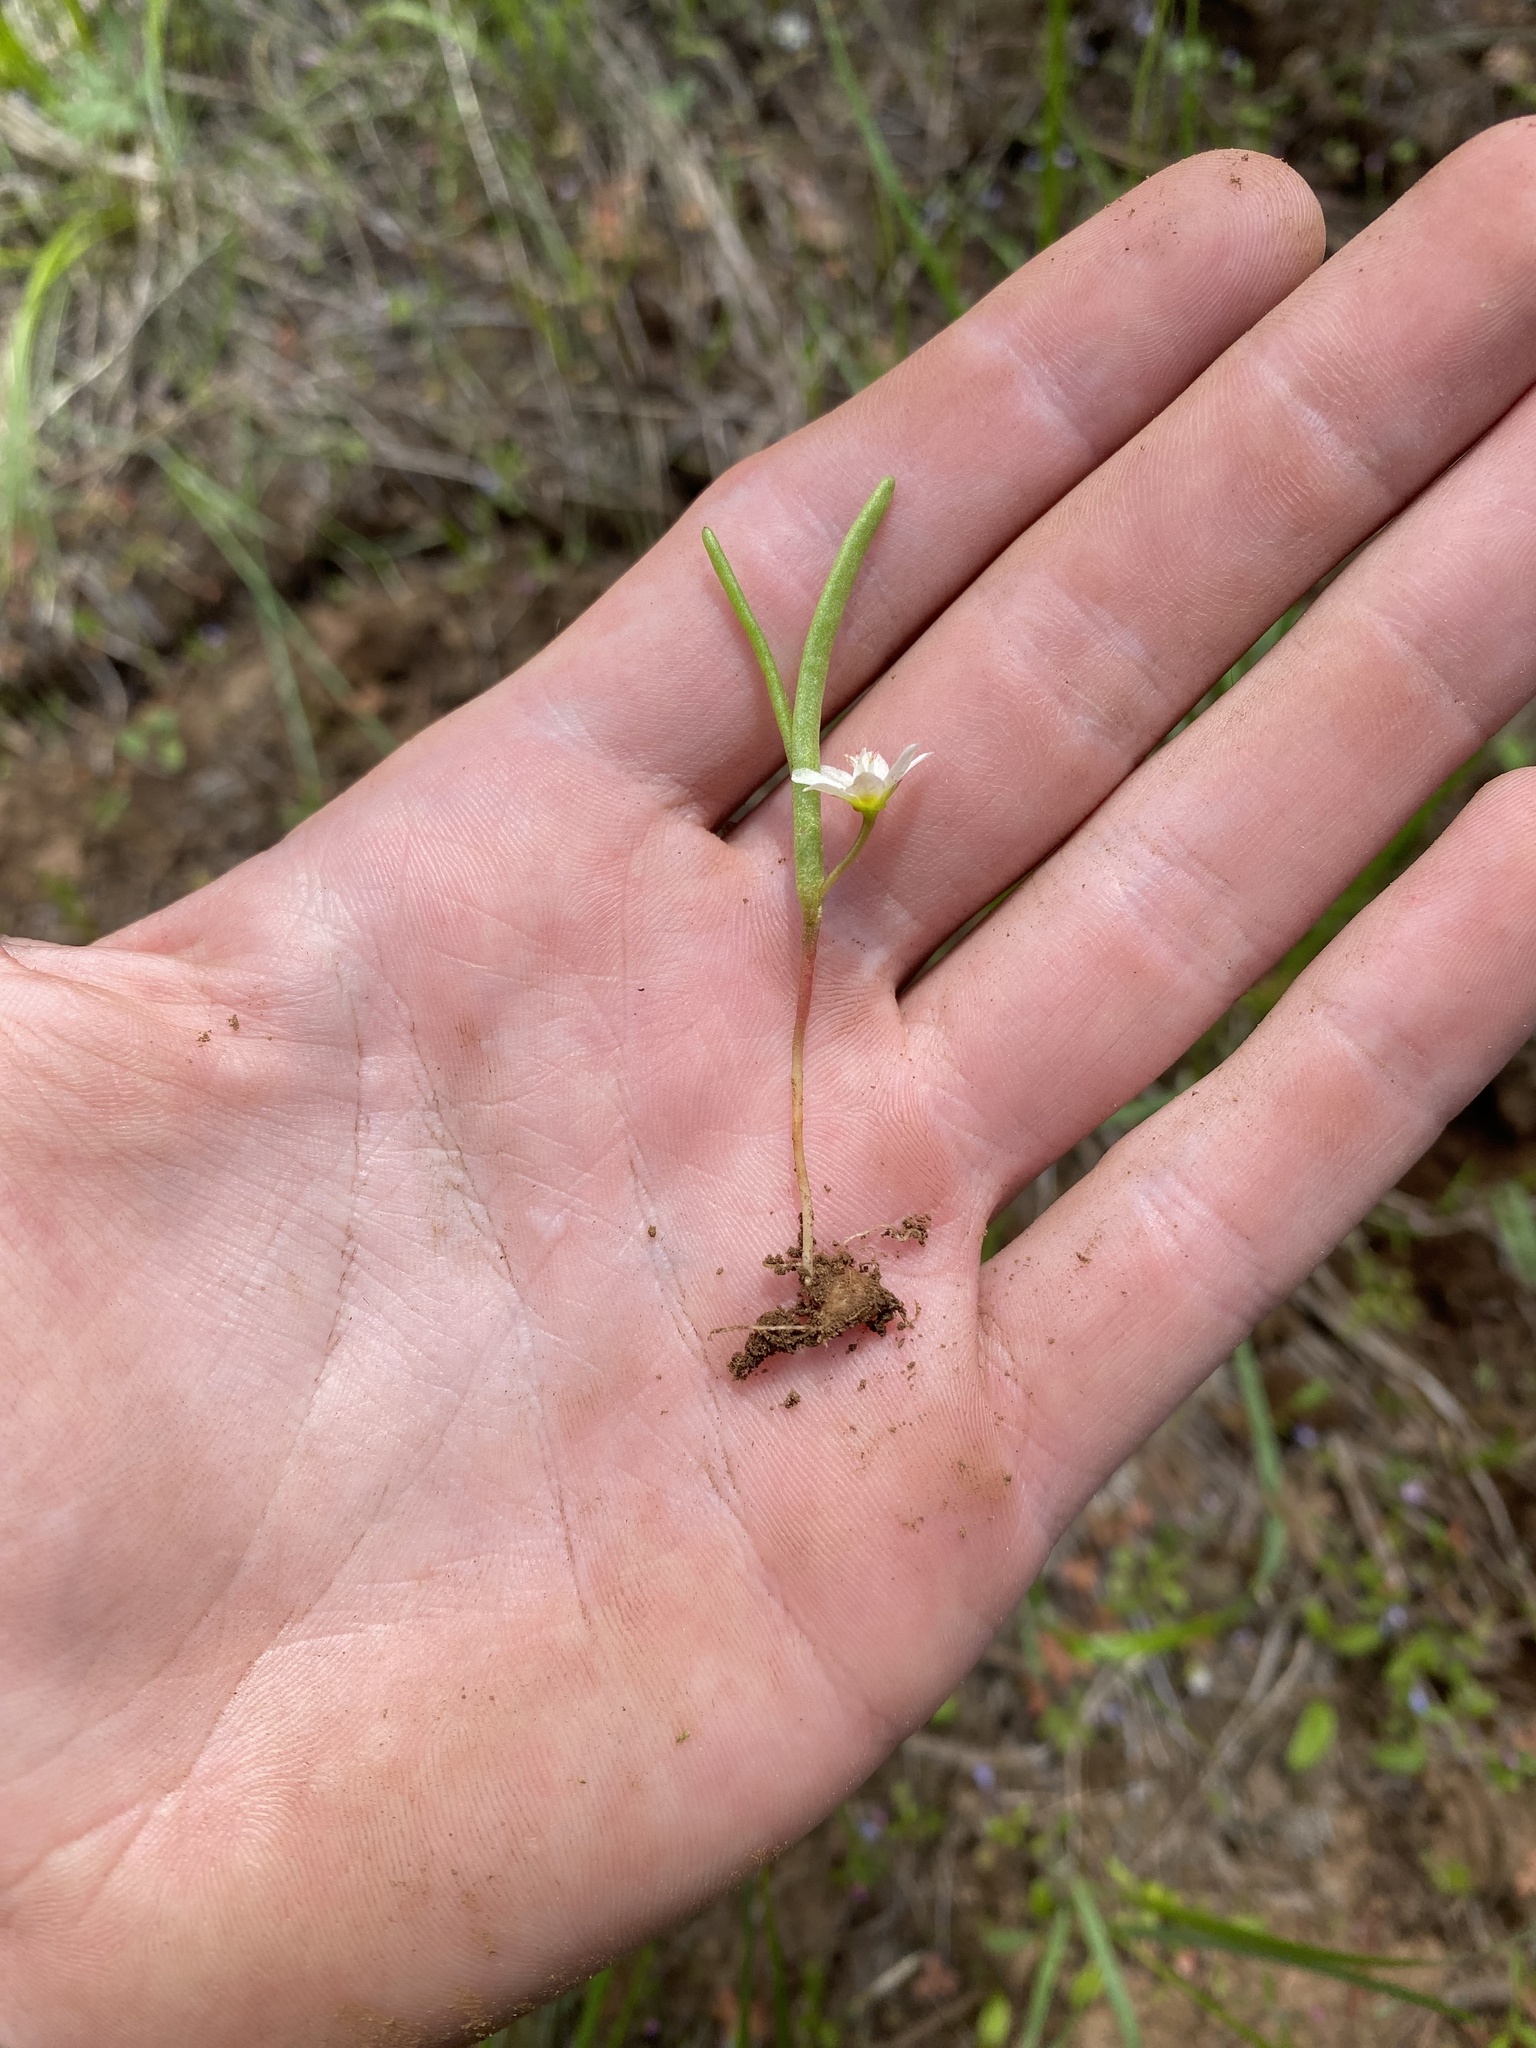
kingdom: Plantae
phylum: Tracheophyta
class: Magnoliopsida
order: Caryophyllales
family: Montiaceae
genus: Lewisia
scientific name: Lewisia triphylla
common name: Three-leaved bitterroot
